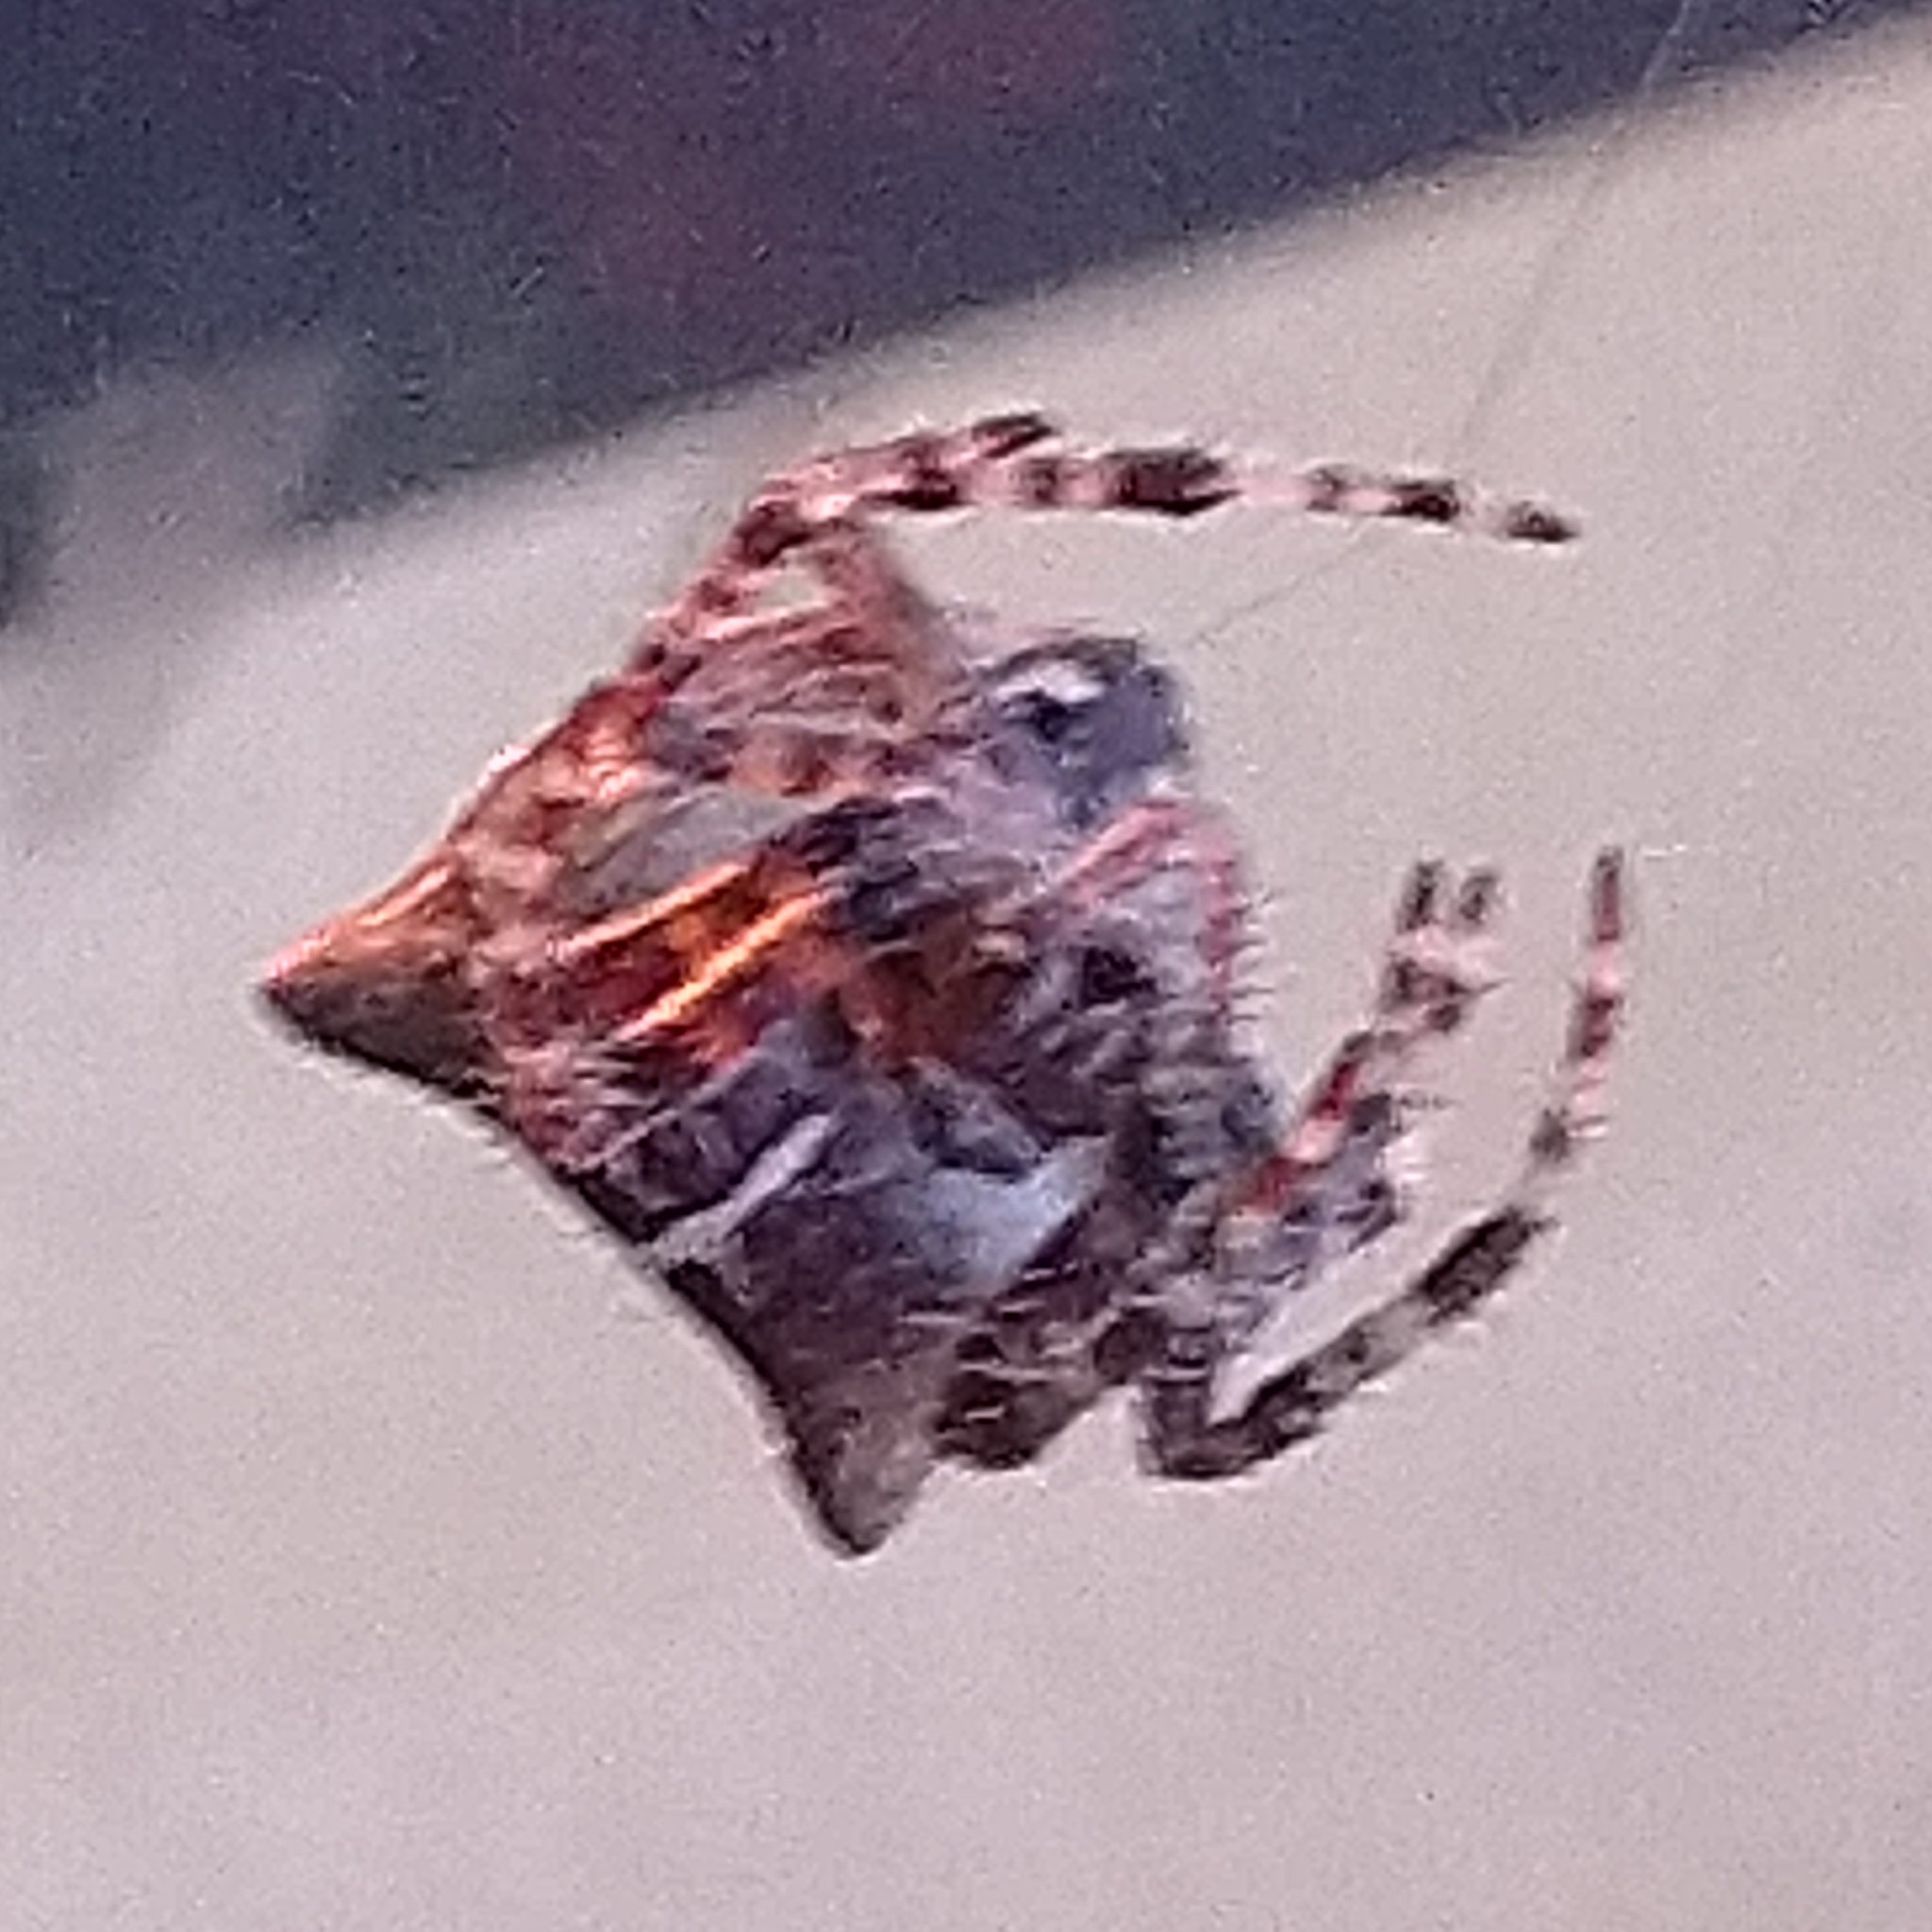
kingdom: Animalia
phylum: Arthropoda
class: Arachnida
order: Araneae
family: Araneidae
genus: Araneus
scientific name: Araneus gemmoides
